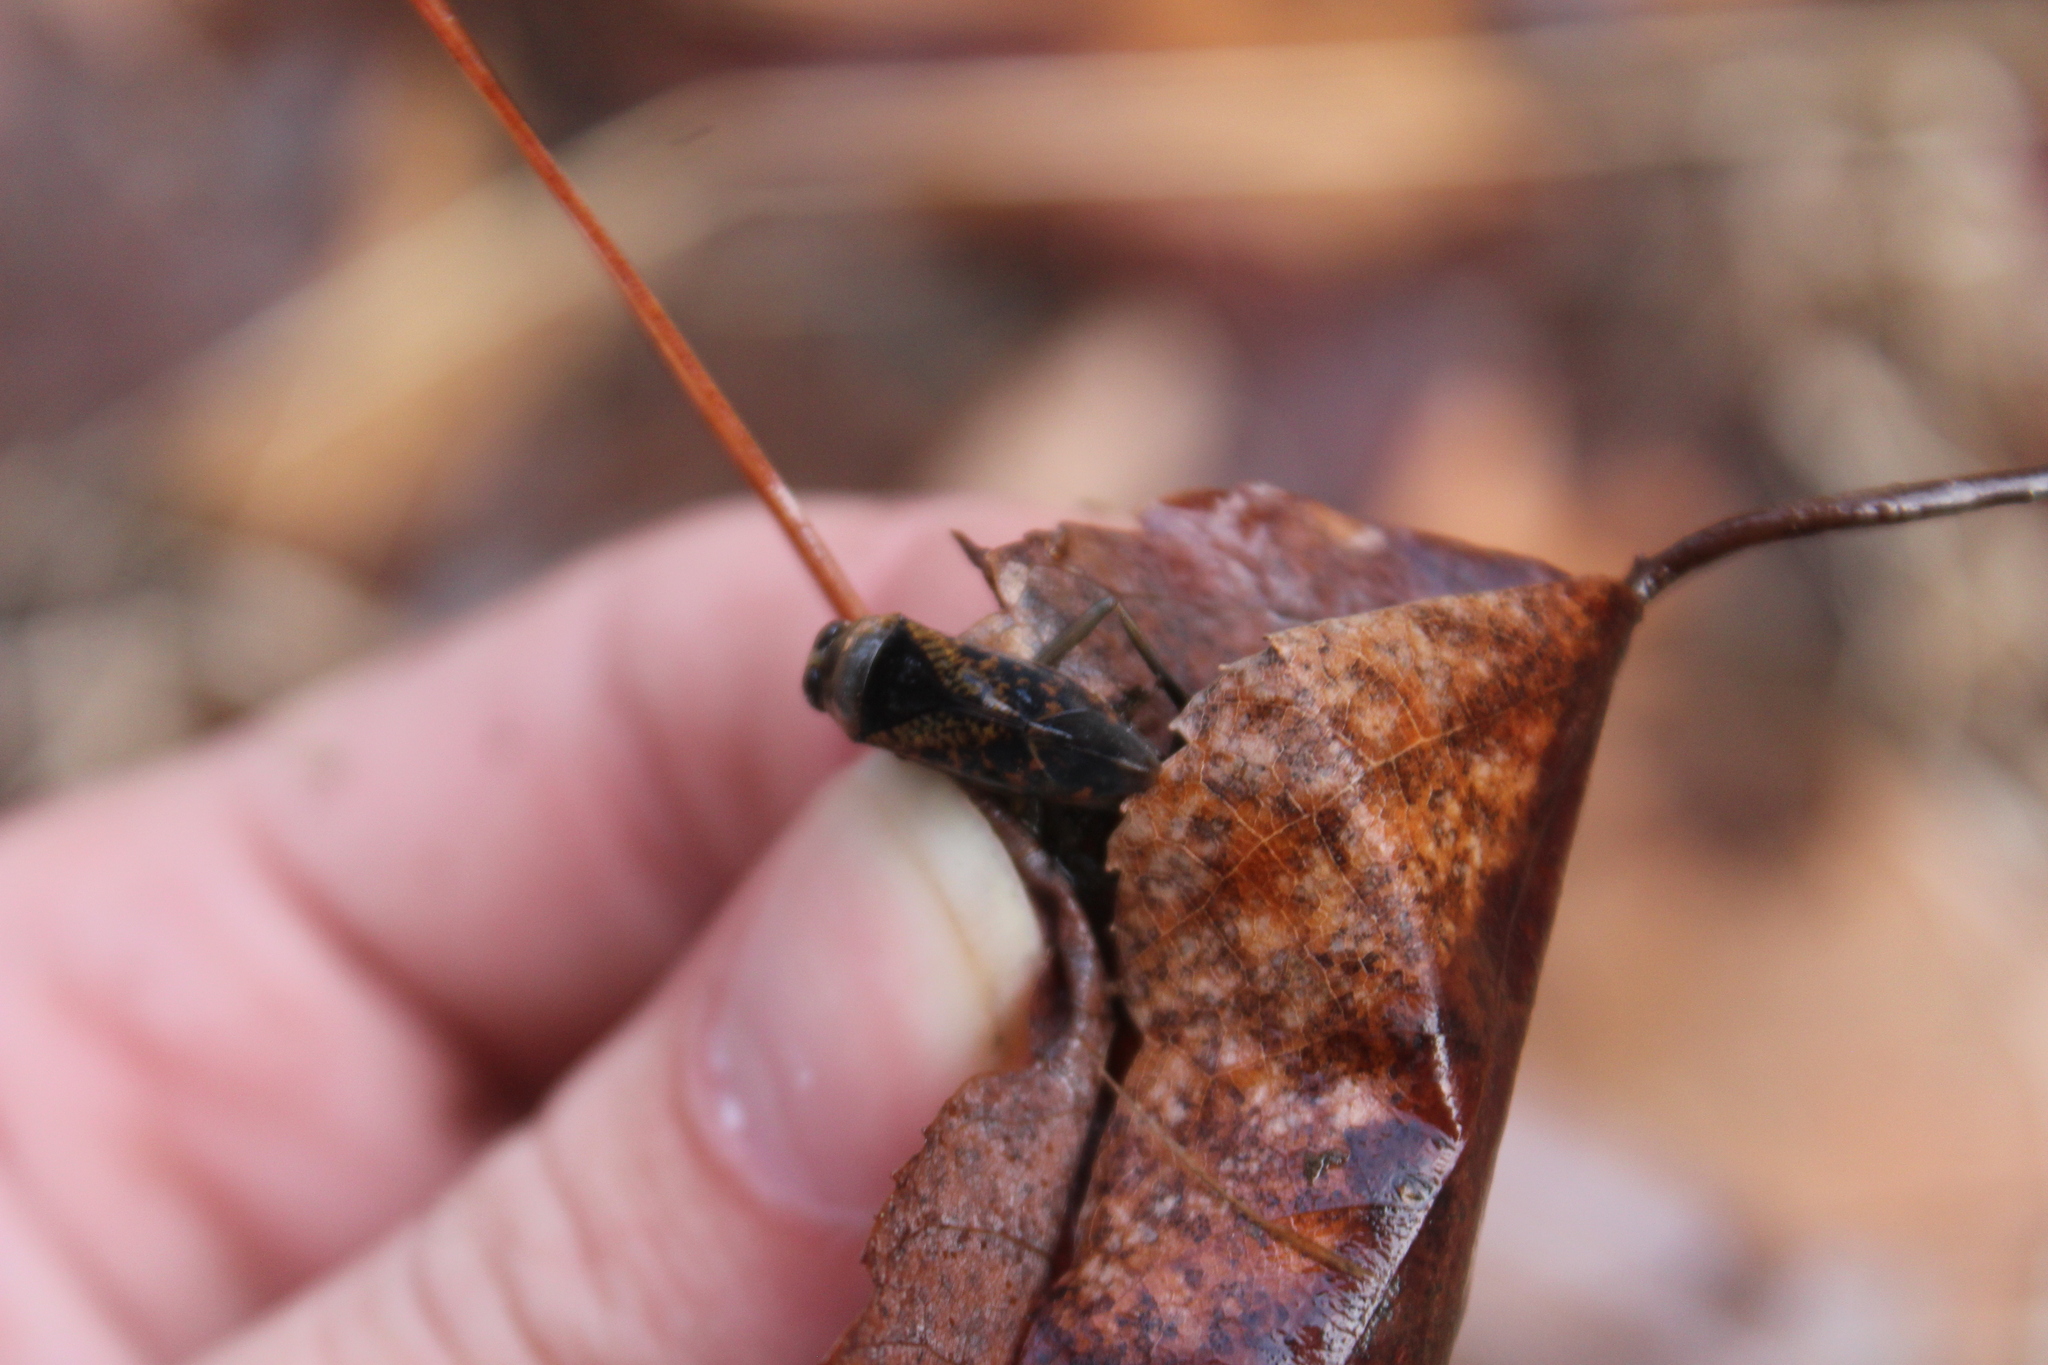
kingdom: Animalia
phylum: Arthropoda
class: Insecta
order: Hemiptera
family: Notonectidae
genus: Notonecta
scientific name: Notonecta irrorata
